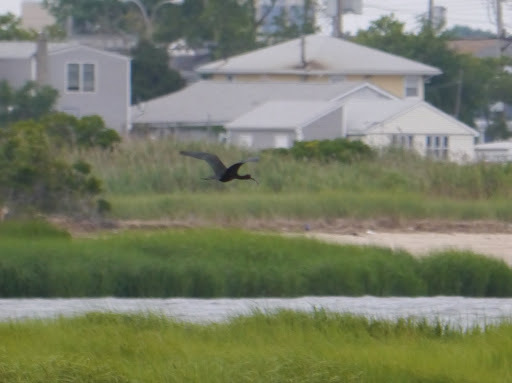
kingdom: Animalia
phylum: Chordata
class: Aves
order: Pelecaniformes
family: Threskiornithidae
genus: Plegadis
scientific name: Plegadis falcinellus
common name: Glossy ibis
